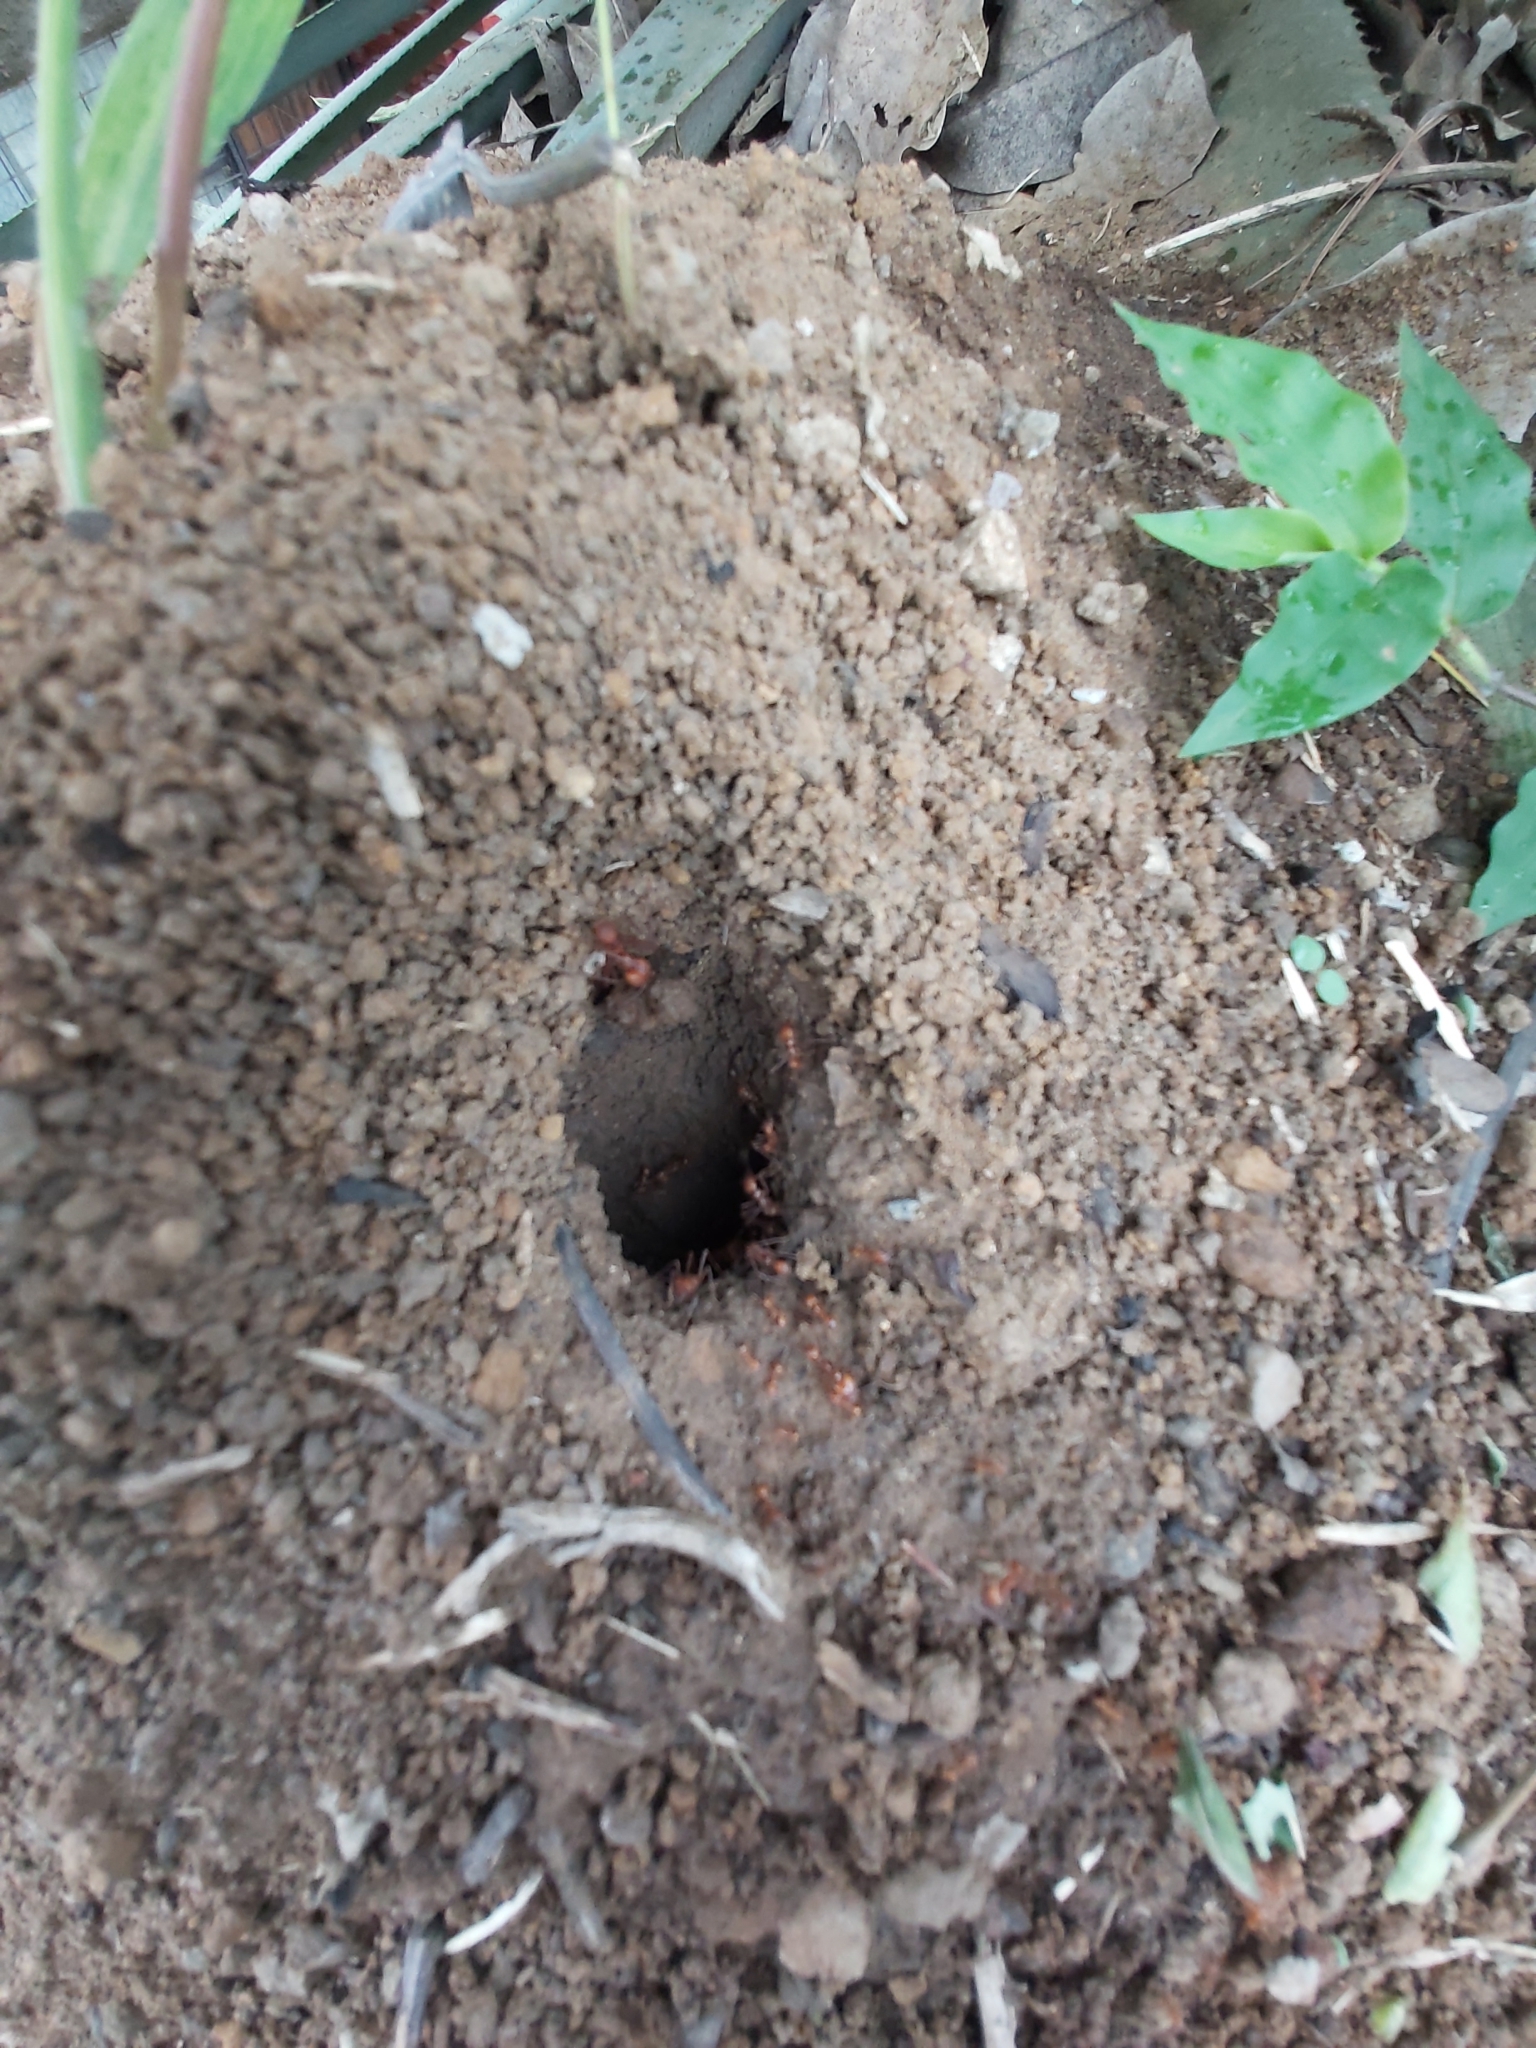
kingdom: Animalia
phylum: Arthropoda
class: Insecta
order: Hymenoptera
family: Formicidae
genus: Atta
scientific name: Atta cephalotes
